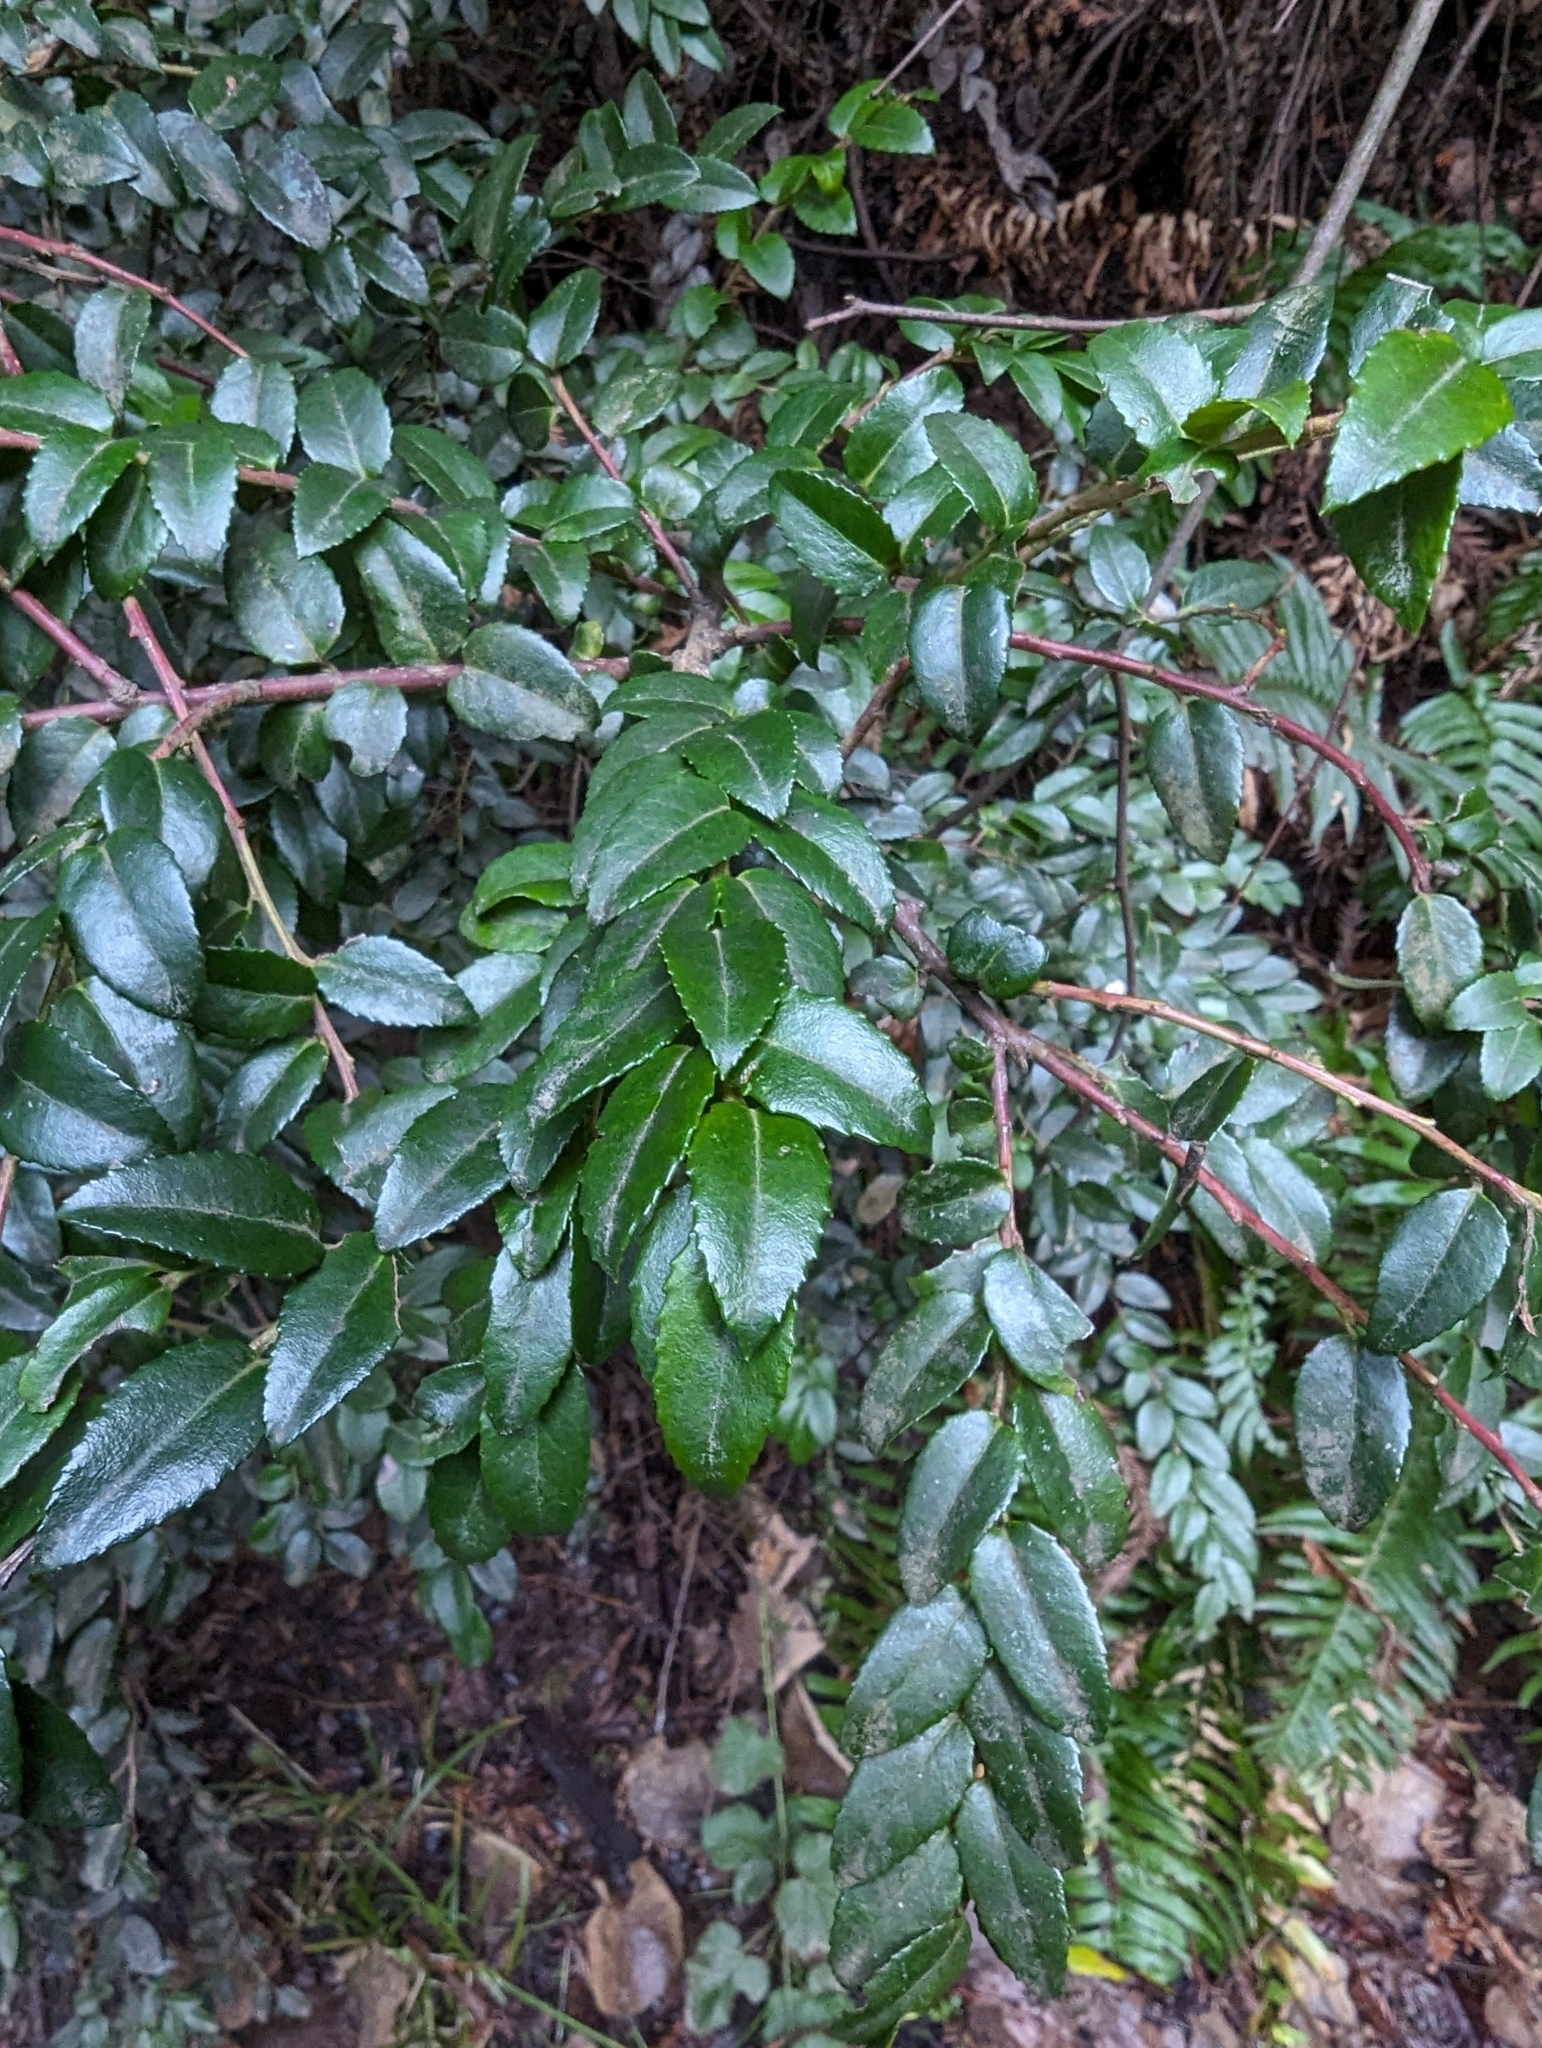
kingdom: Plantae
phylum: Tracheophyta
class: Magnoliopsida
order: Ericales
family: Ericaceae
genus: Vaccinium
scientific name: Vaccinium ovatum
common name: California-huckleberry
